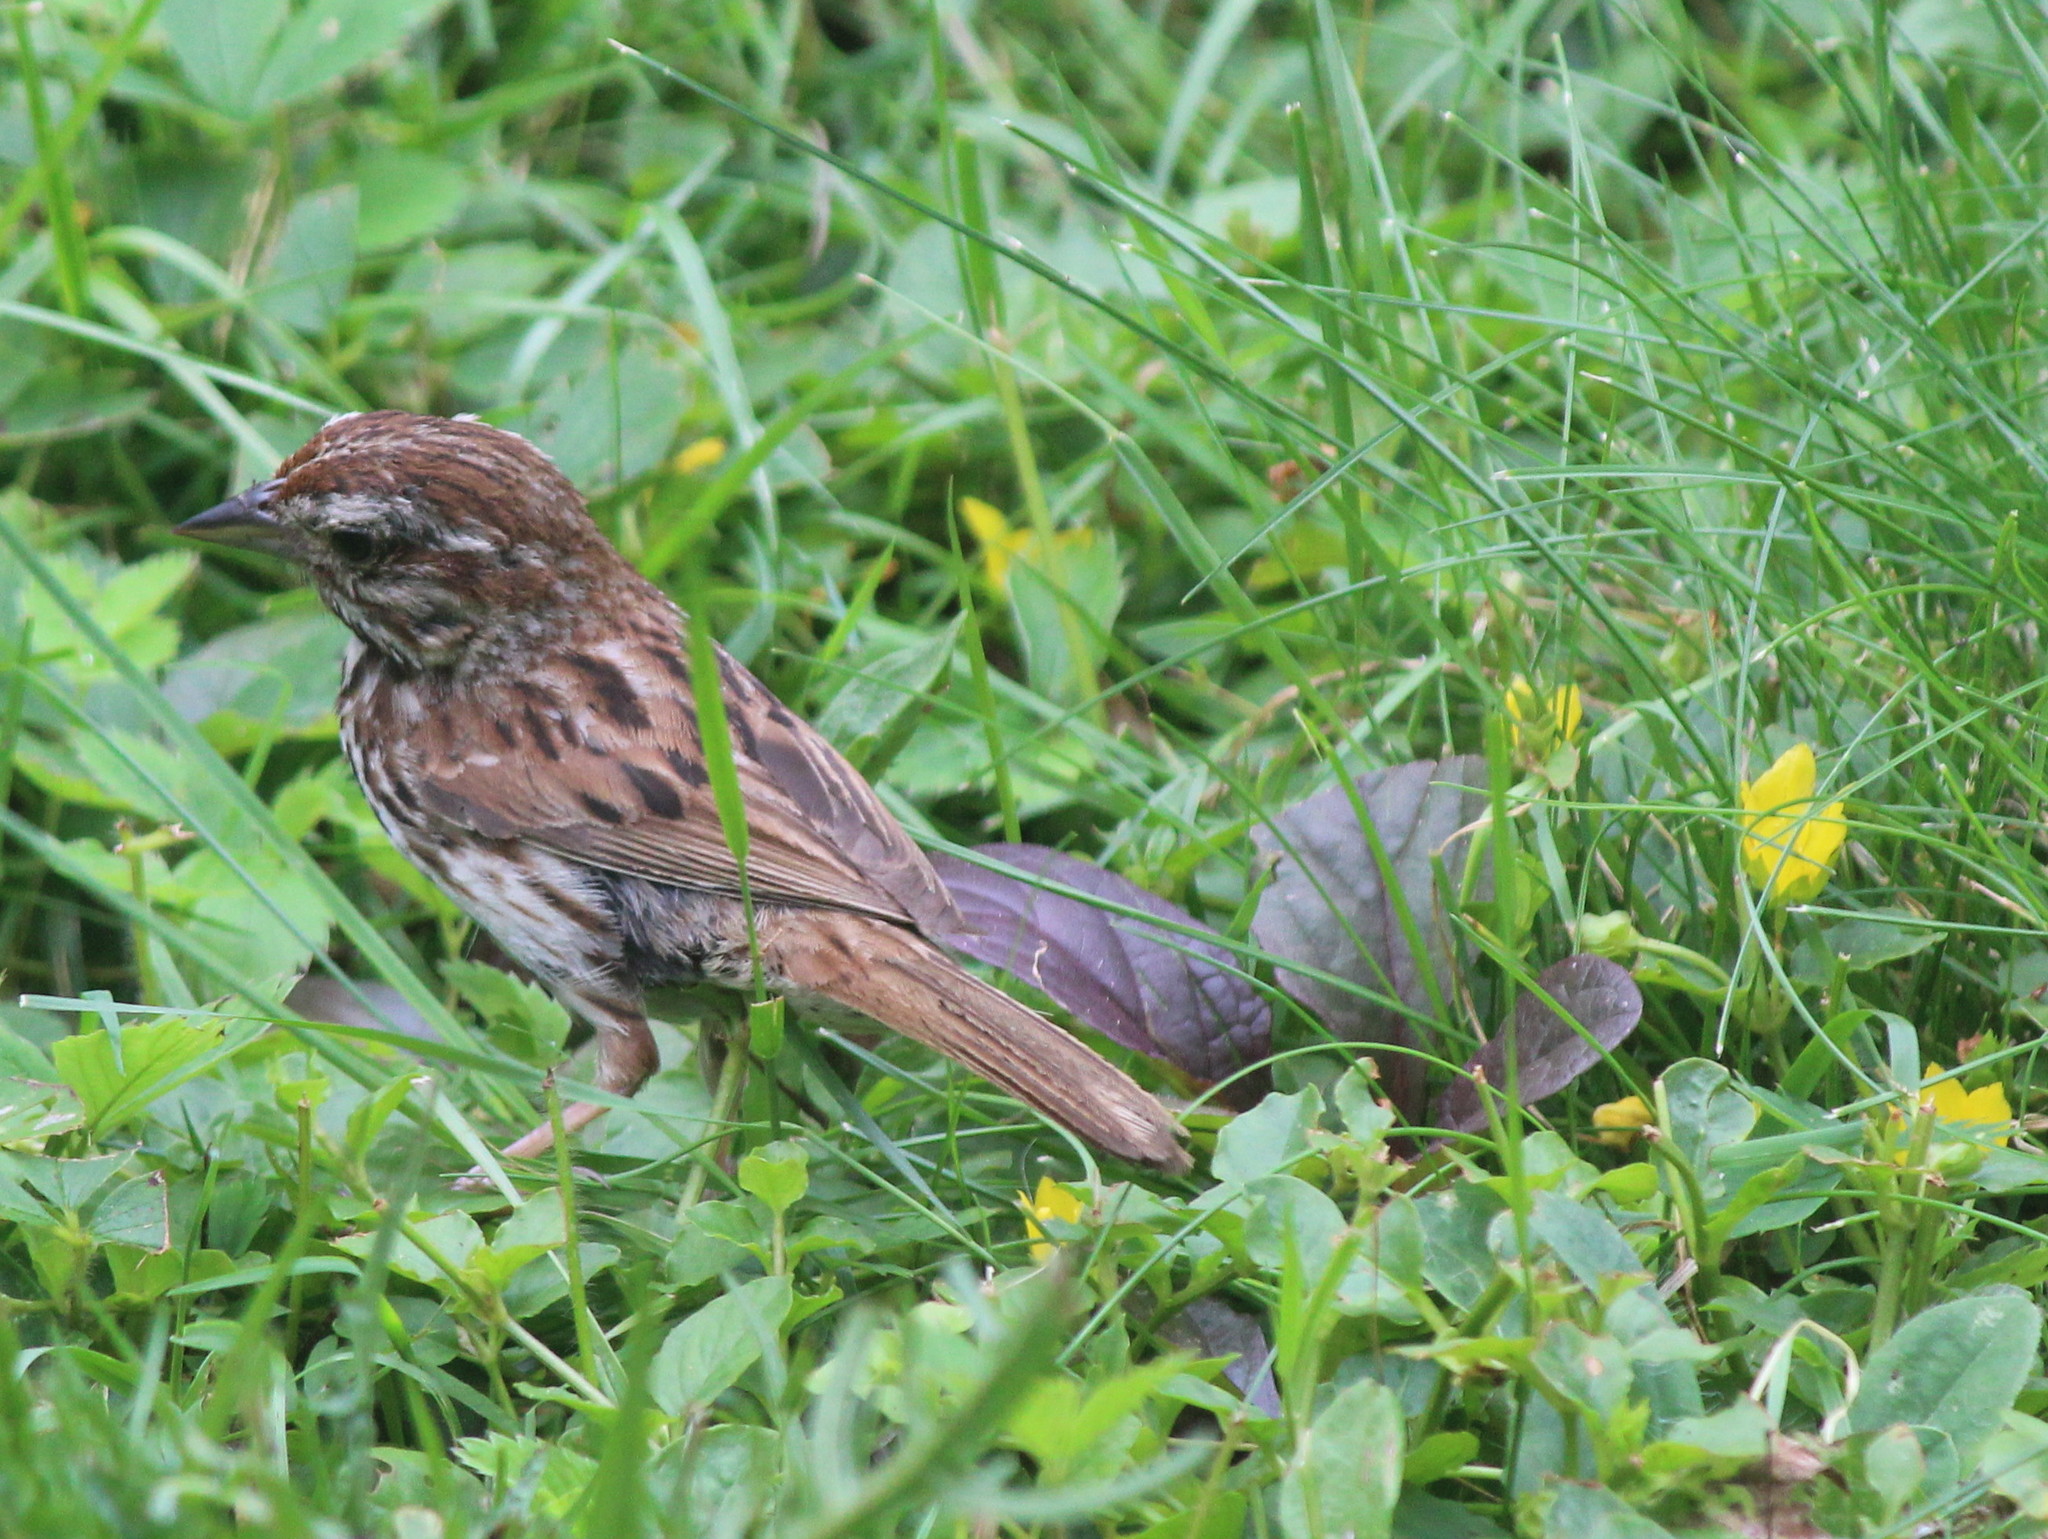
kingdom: Animalia
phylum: Chordata
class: Aves
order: Passeriformes
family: Passerellidae
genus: Melospiza
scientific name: Melospiza melodia
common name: Song sparrow
